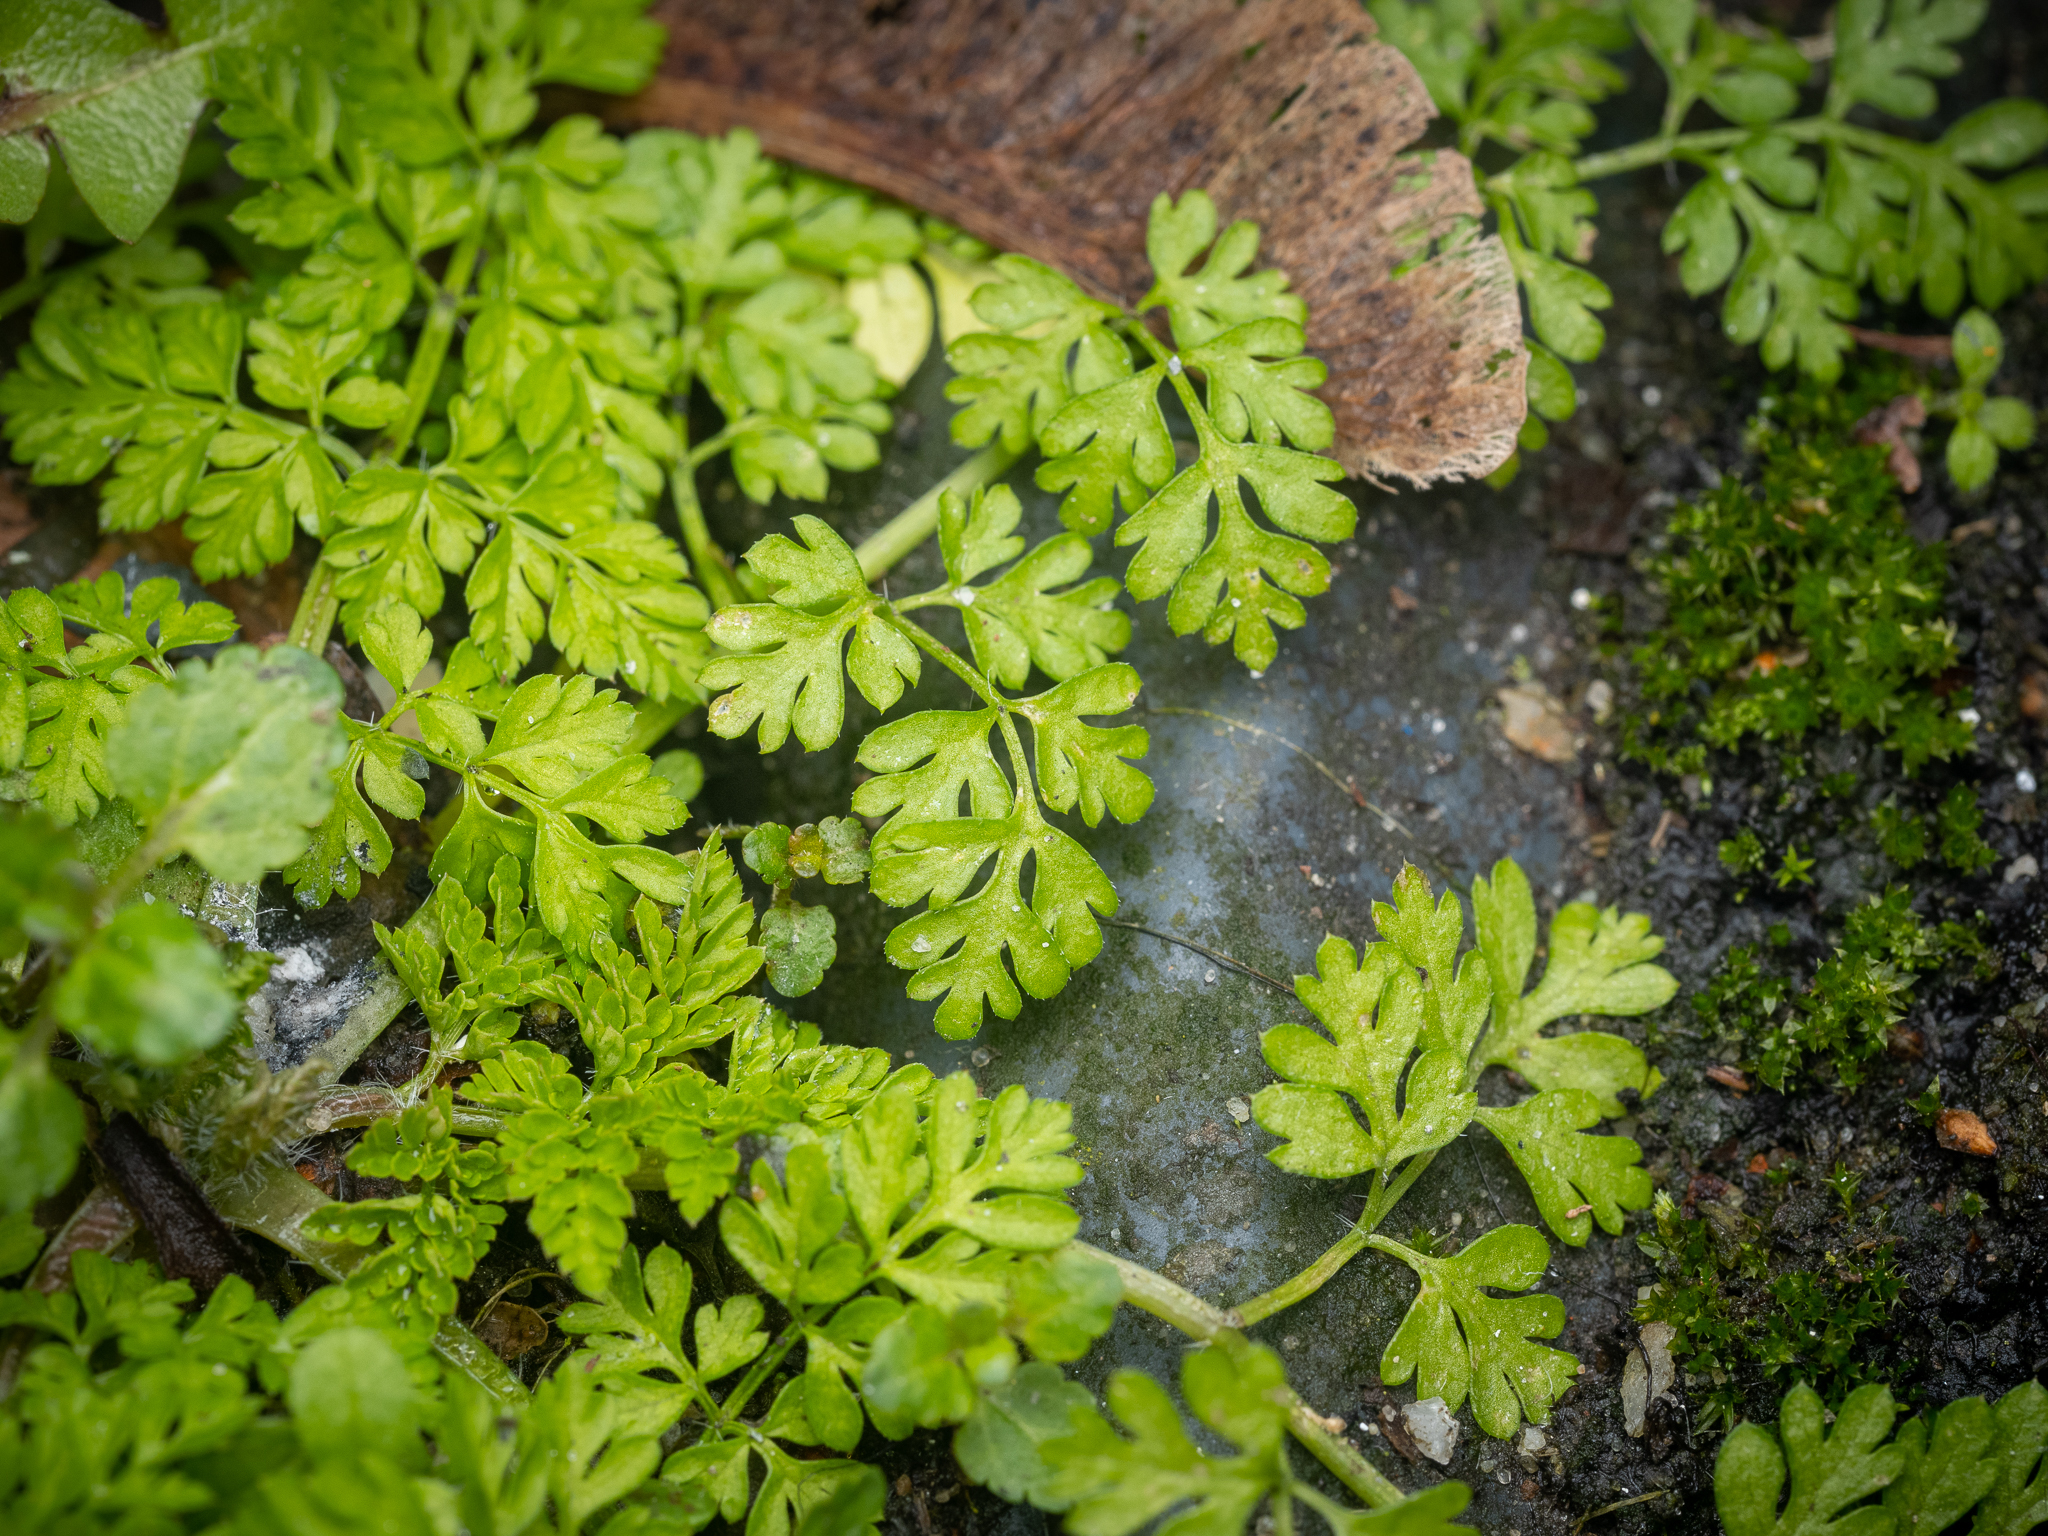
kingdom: Plantae
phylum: Tracheophyta
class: Magnoliopsida
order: Apiales
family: Apiaceae
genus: Anthriscus
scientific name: Anthriscus caucalis
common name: Bur chervil
